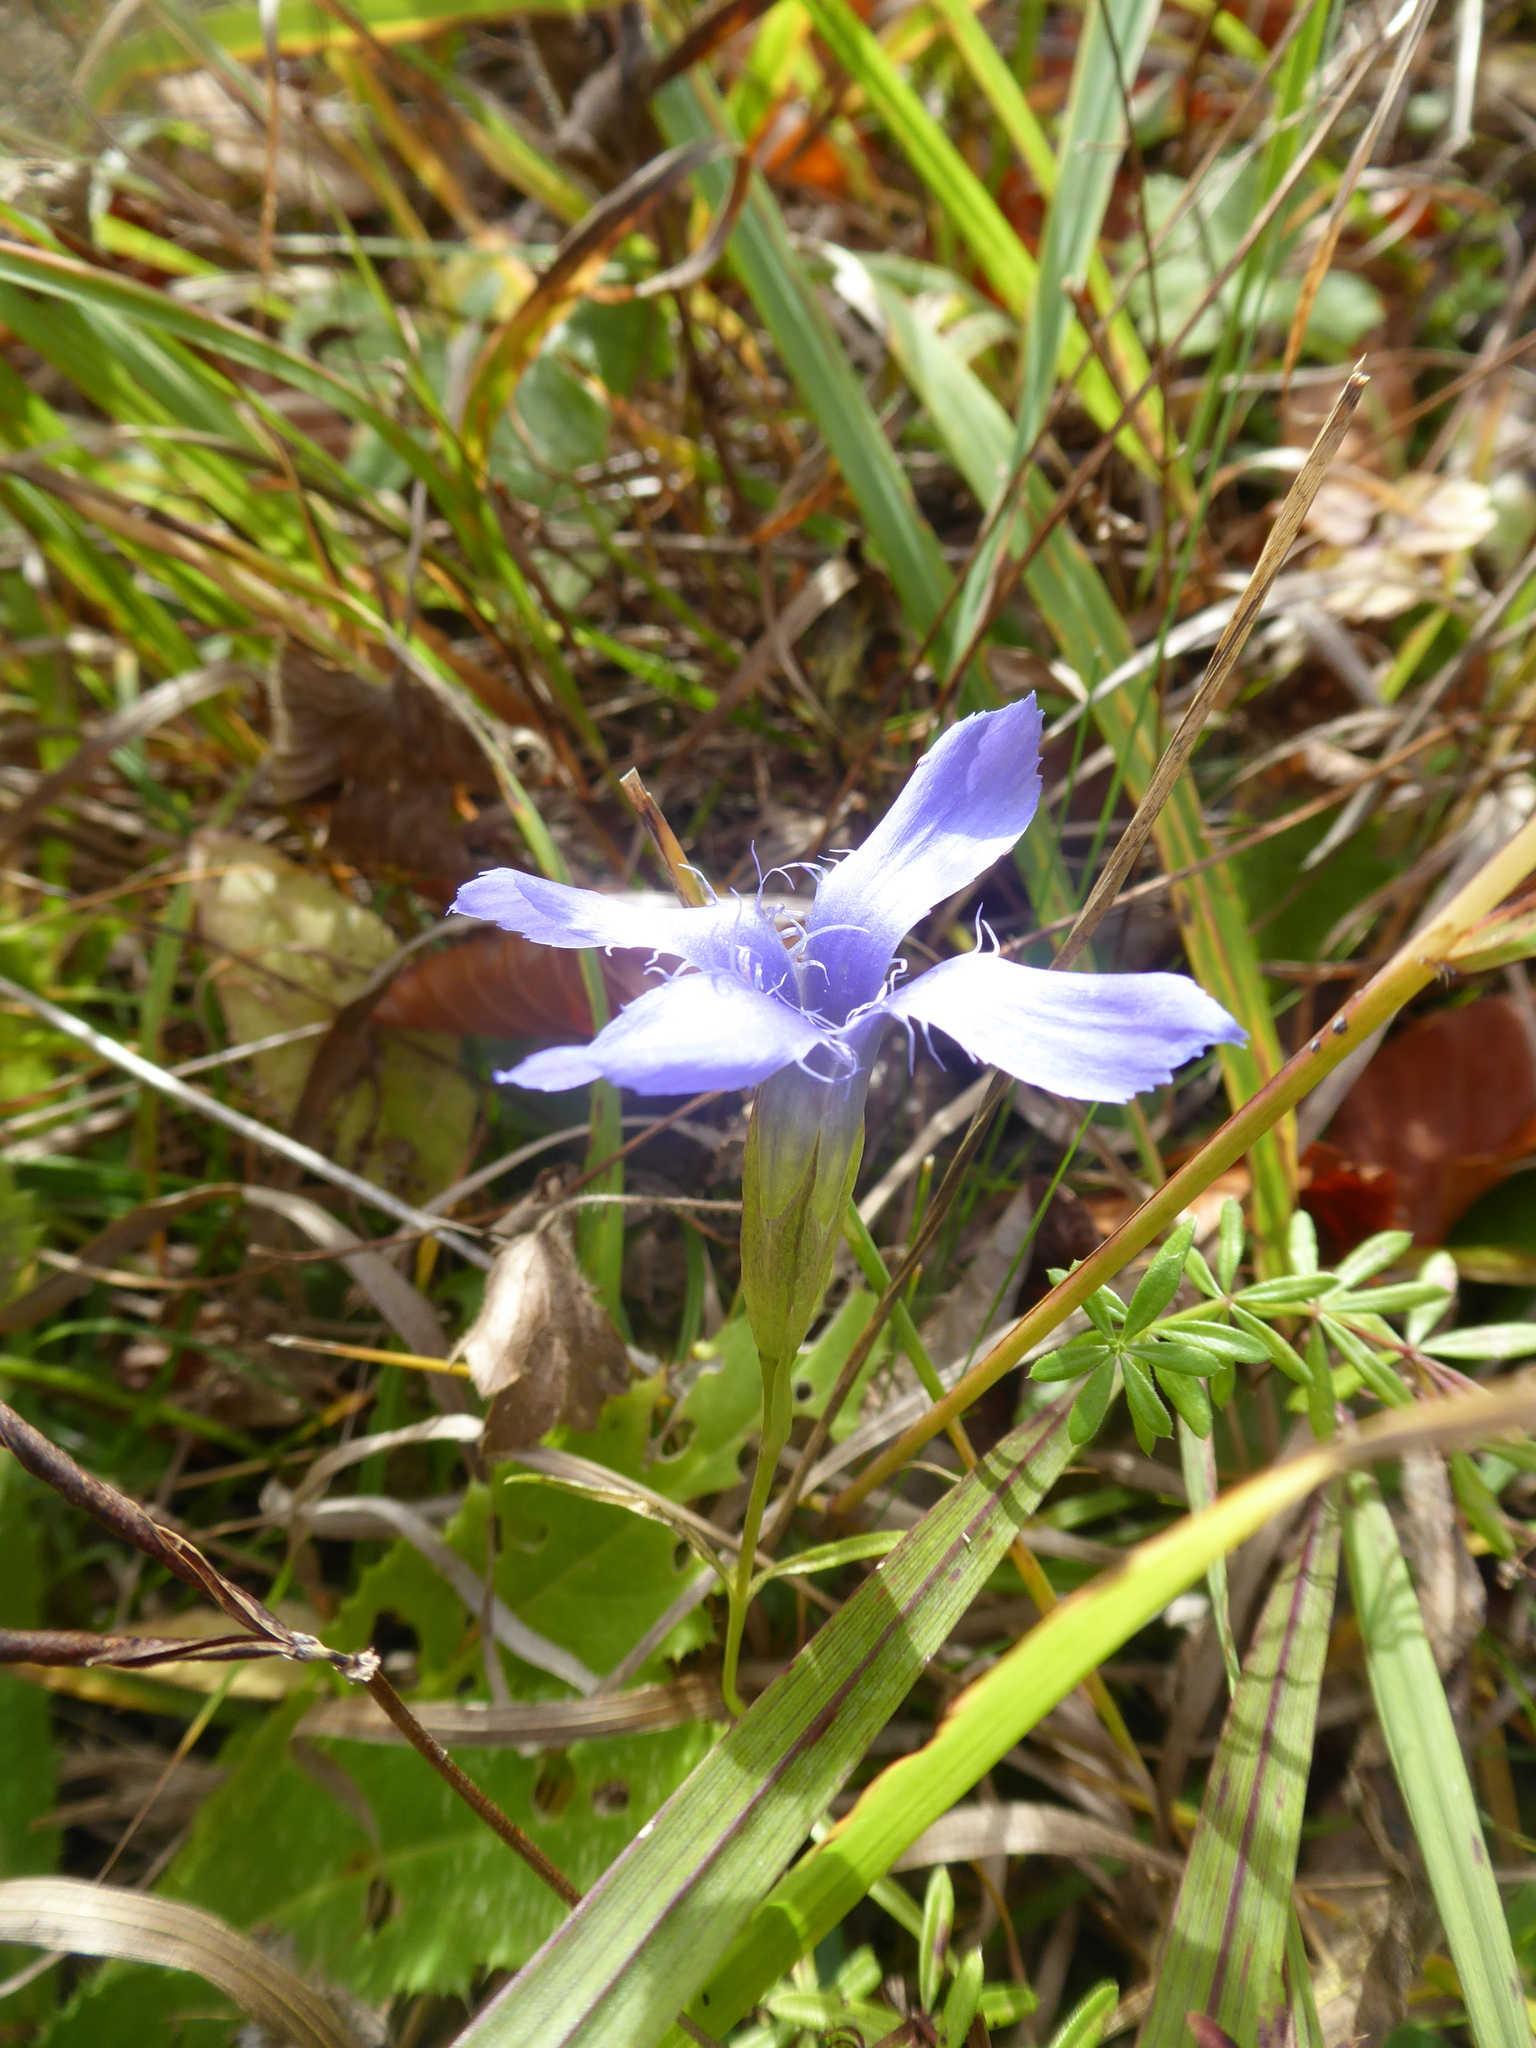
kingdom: Plantae
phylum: Tracheophyta
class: Magnoliopsida
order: Gentianales
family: Gentianaceae
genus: Gentianopsis
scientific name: Gentianopsis ciliata
